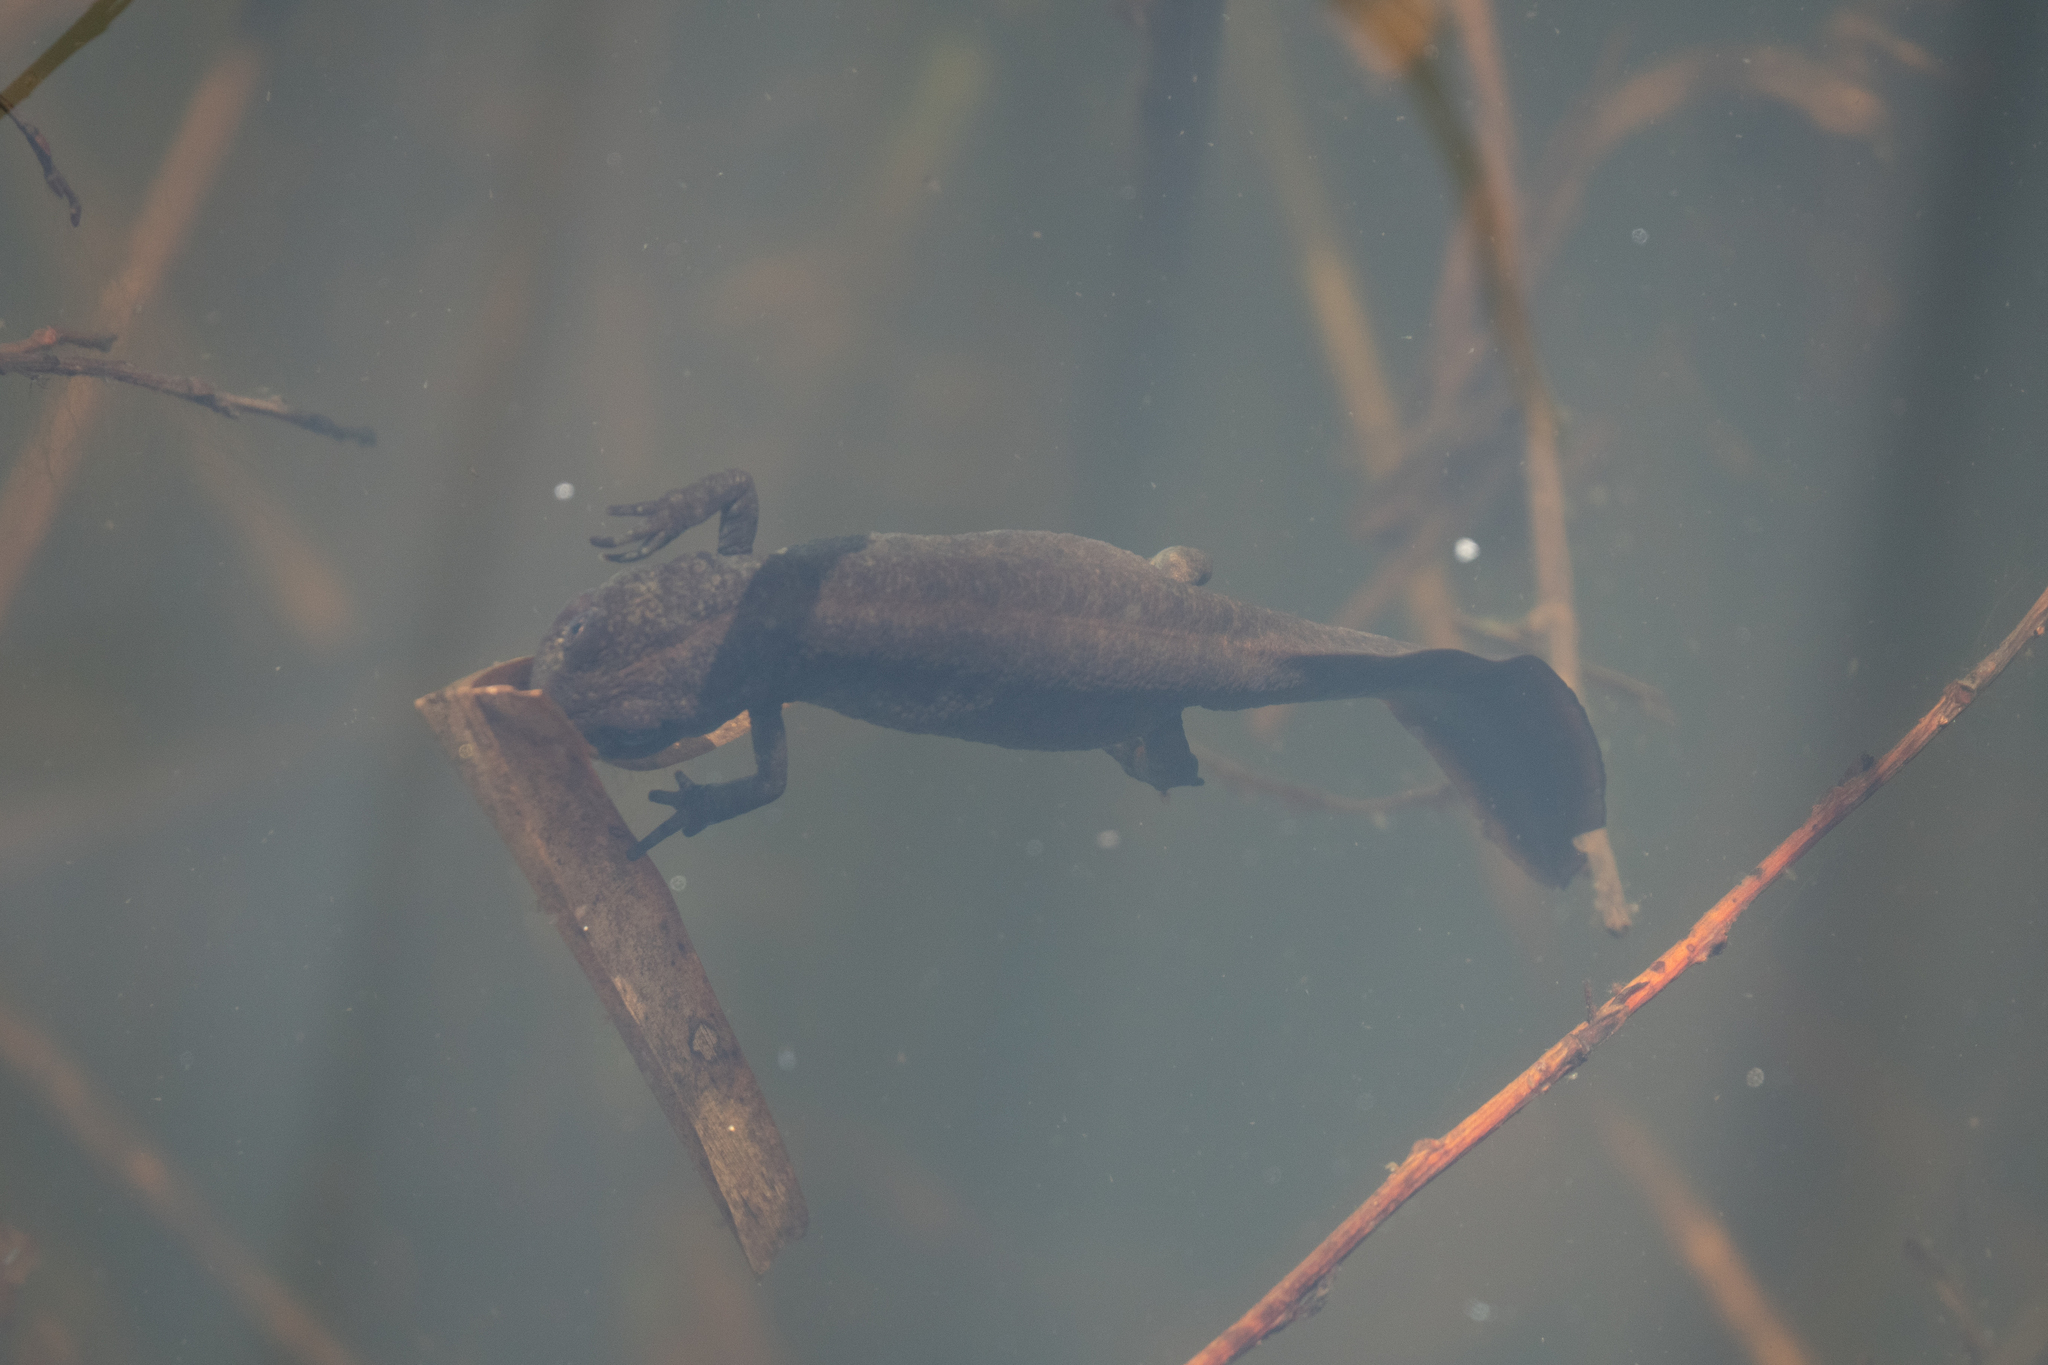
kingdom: Animalia
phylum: Chordata
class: Amphibia
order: Caudata
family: Salamandridae
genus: Triturus
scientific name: Triturus carnifex
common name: Italian crested newt
